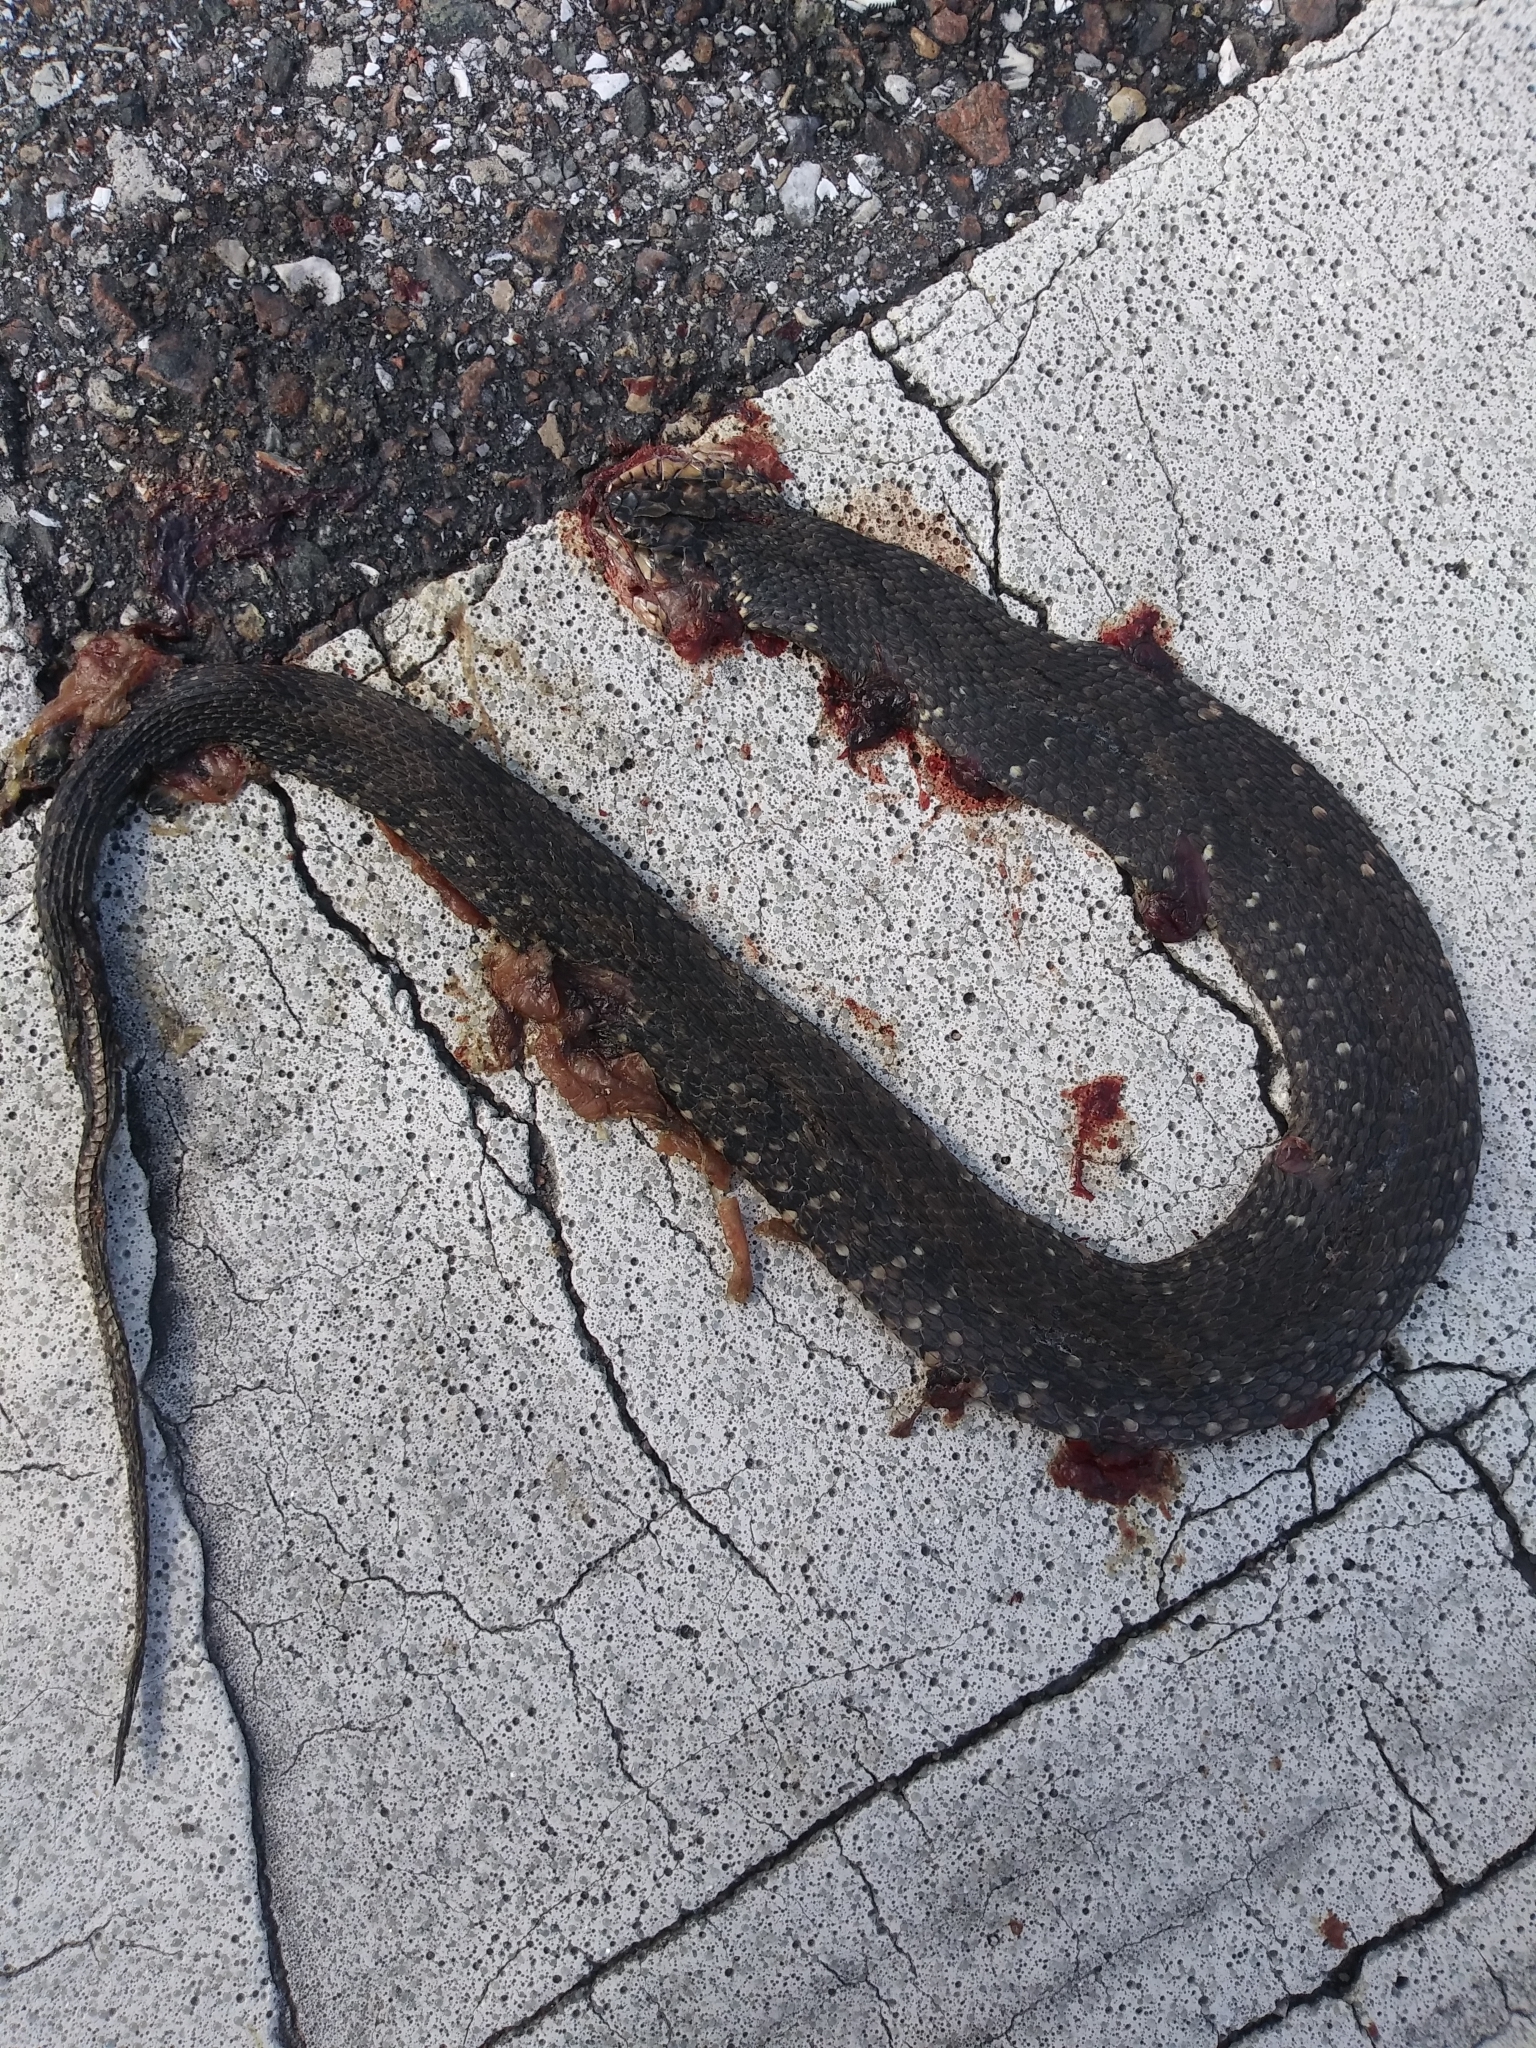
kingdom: Animalia
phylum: Chordata
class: Squamata
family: Colubridae
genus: Nerodia
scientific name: Nerodia fasciata
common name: Southern water snake
